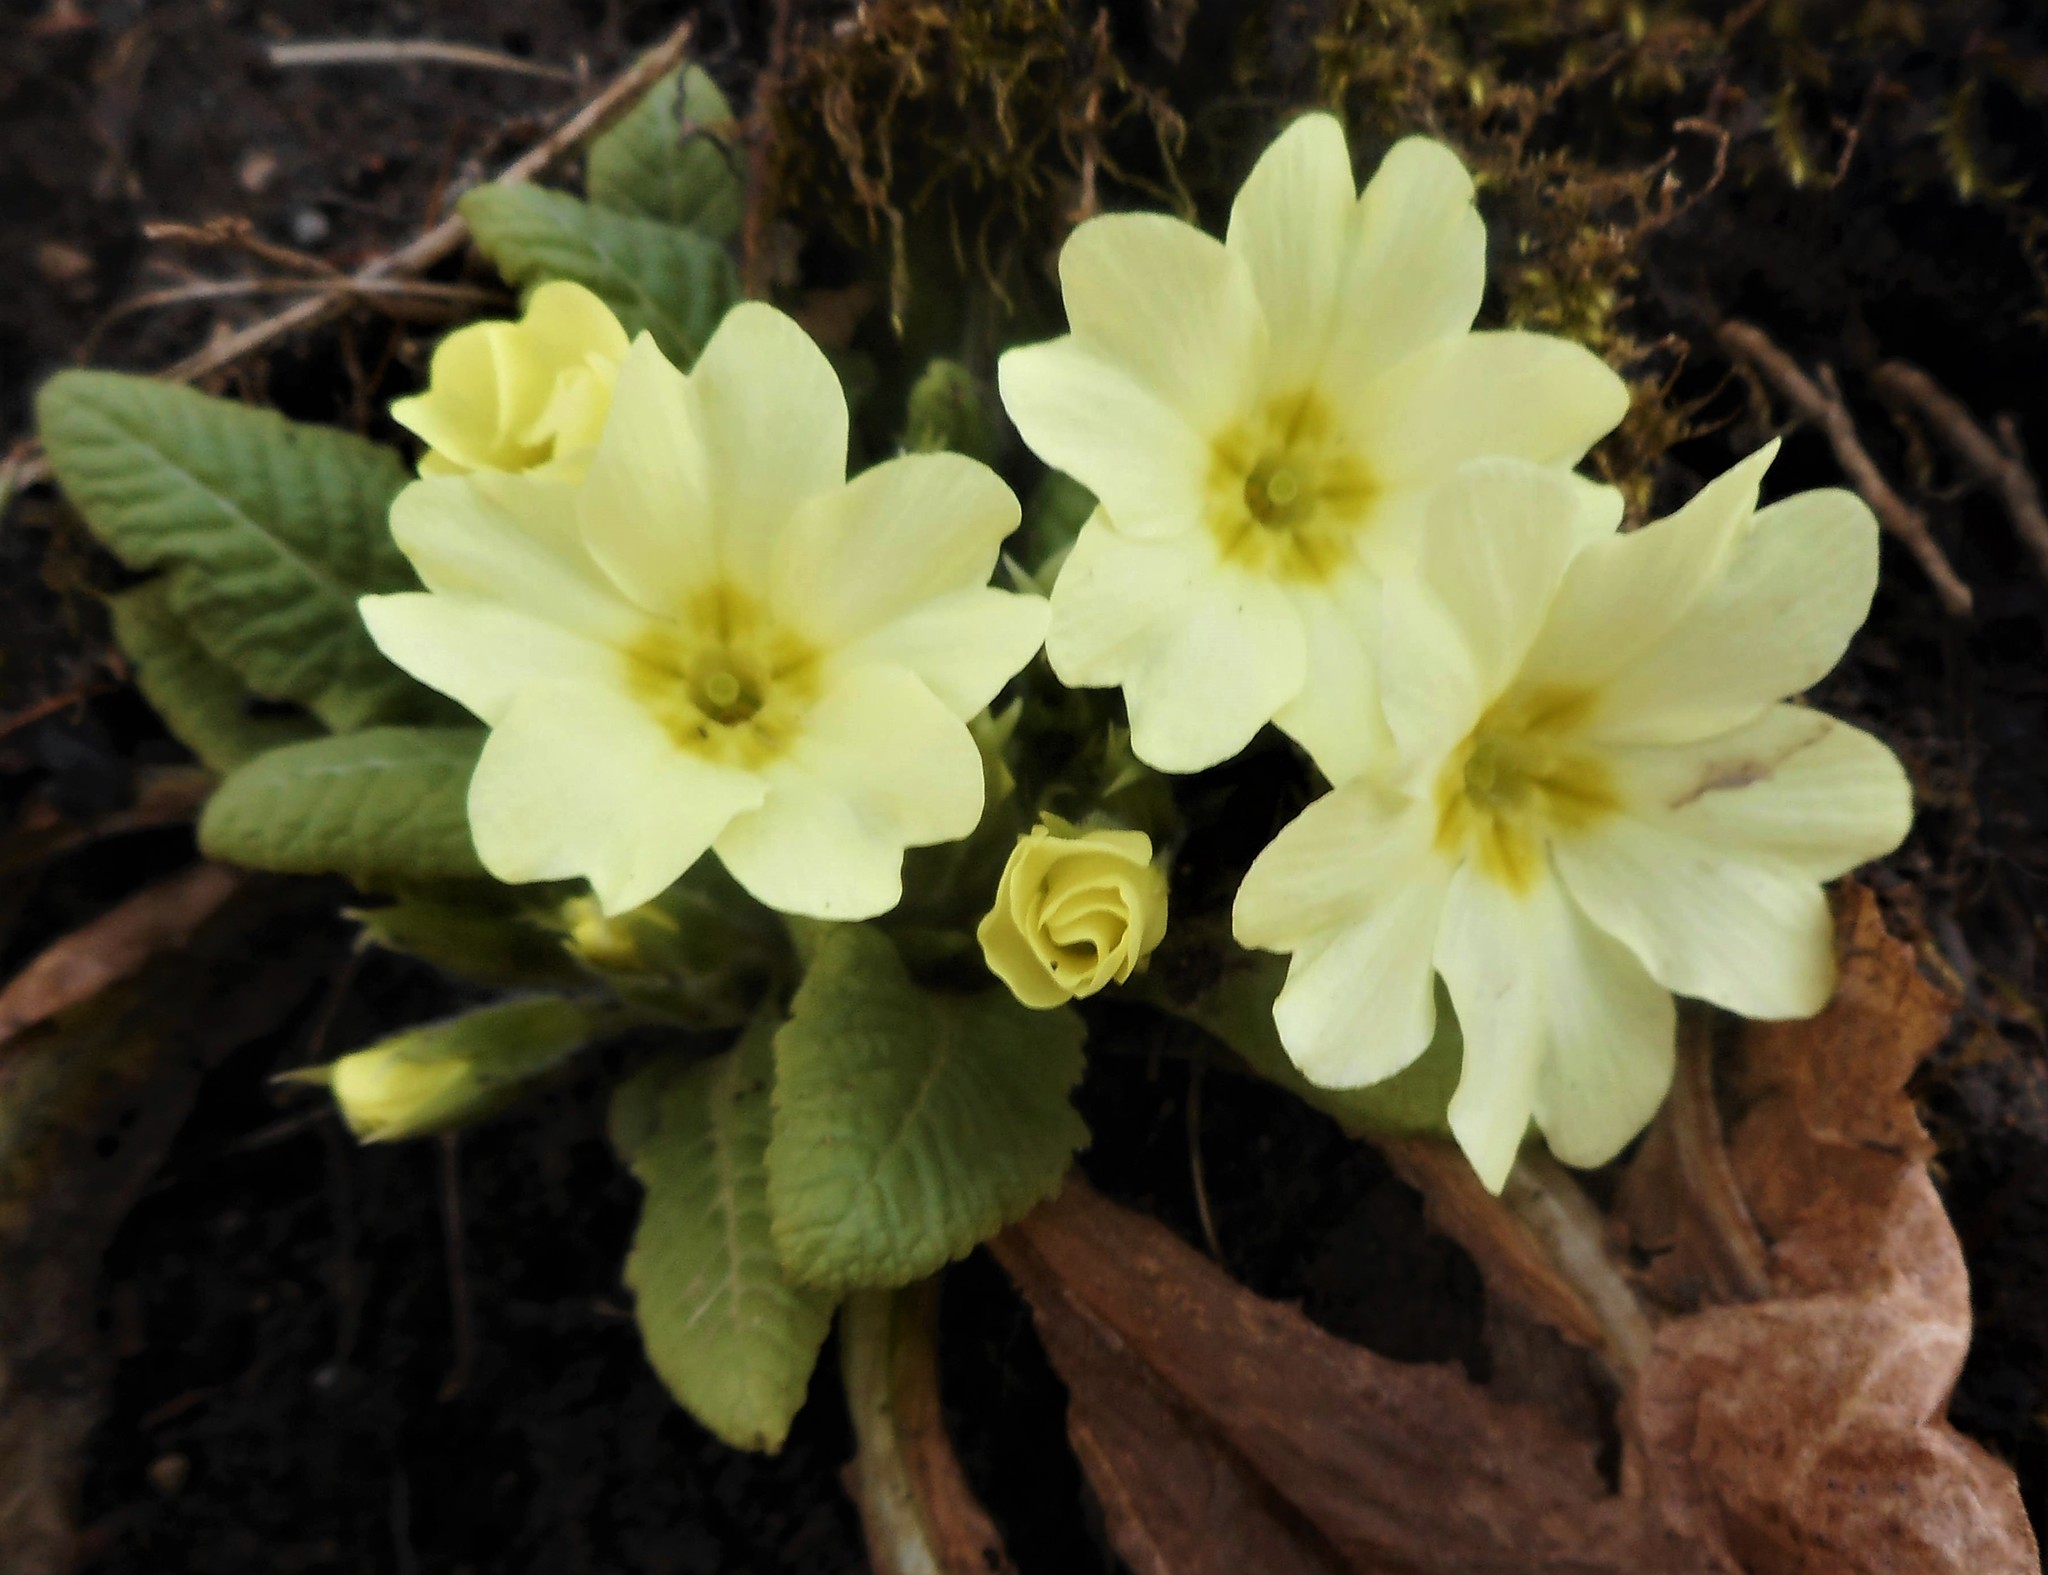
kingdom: Plantae
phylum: Tracheophyta
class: Magnoliopsida
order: Ericales
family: Primulaceae
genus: Primula
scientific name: Primula vulgaris
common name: Primrose
